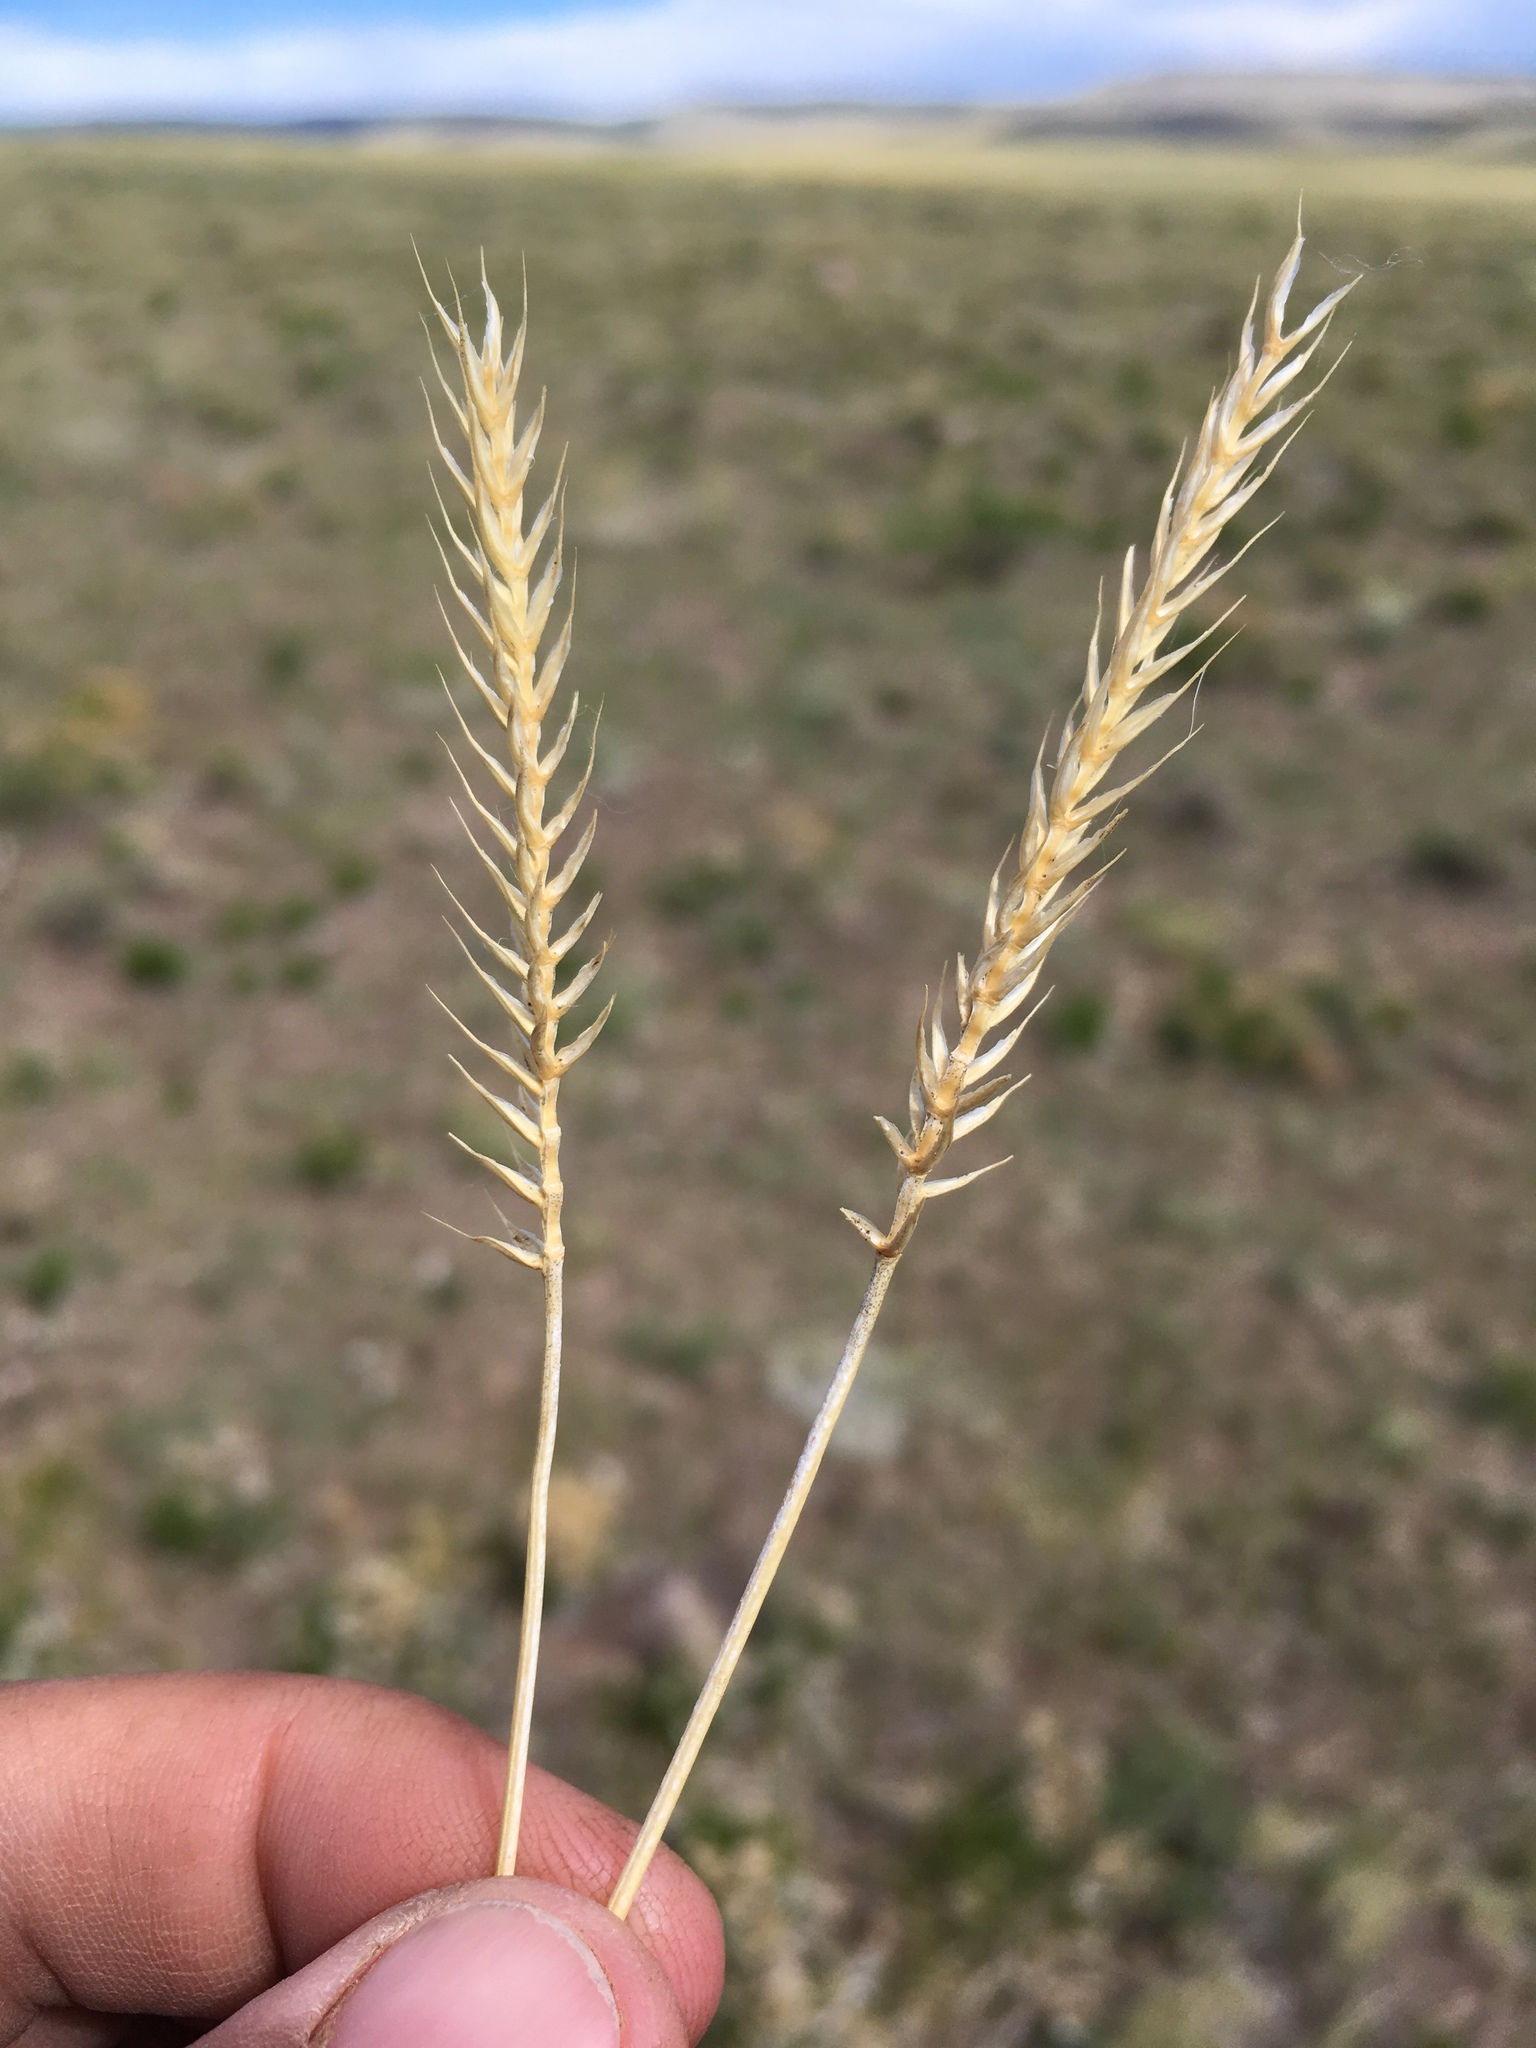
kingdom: Plantae
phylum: Tracheophyta
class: Liliopsida
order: Poales
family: Poaceae
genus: Agropyron
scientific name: Agropyron cristatum
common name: Crested wheatgrass
